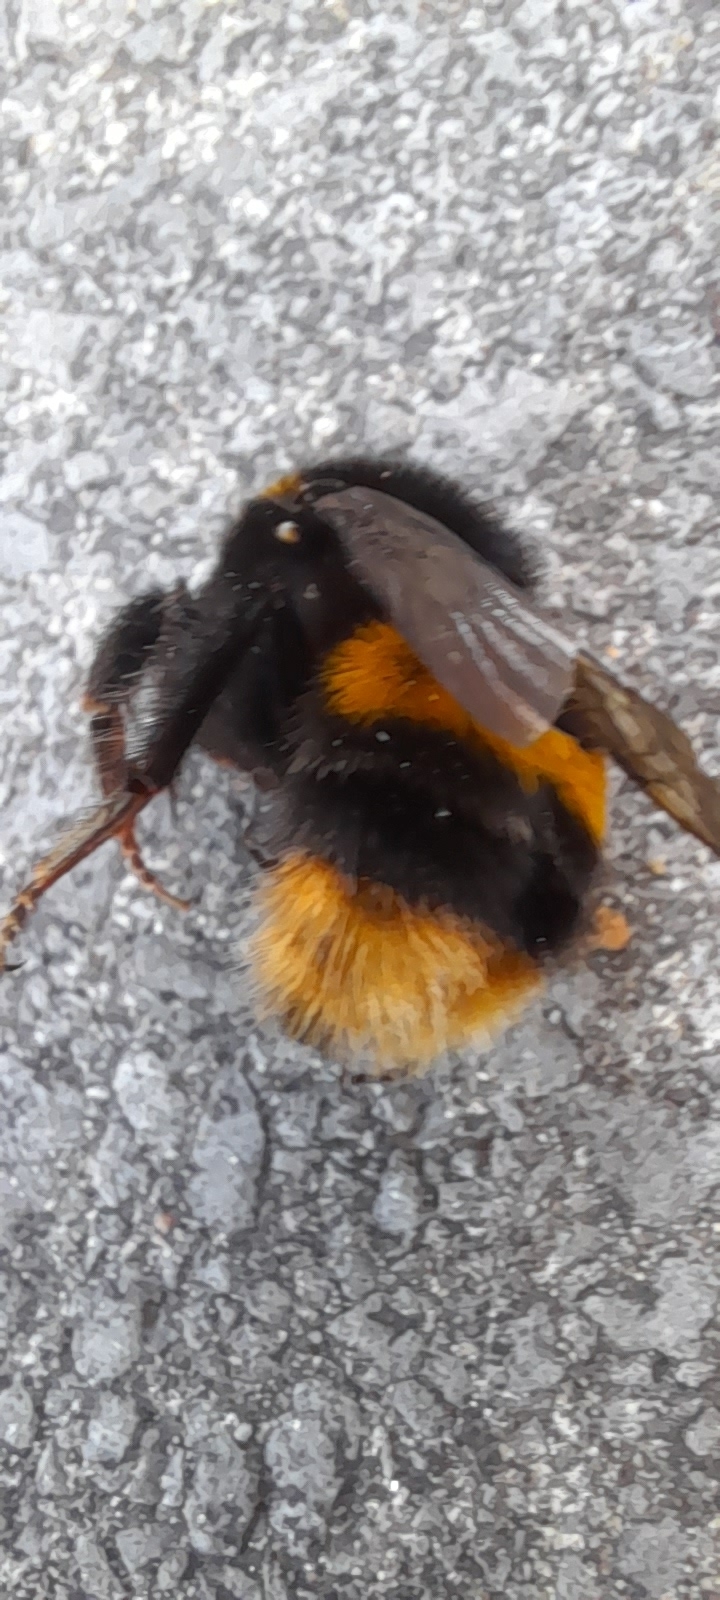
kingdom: Animalia
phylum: Arthropoda
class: Insecta
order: Hymenoptera
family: Apidae
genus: Bombus
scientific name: Bombus terrestris
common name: Buff-tailed bumblebee
